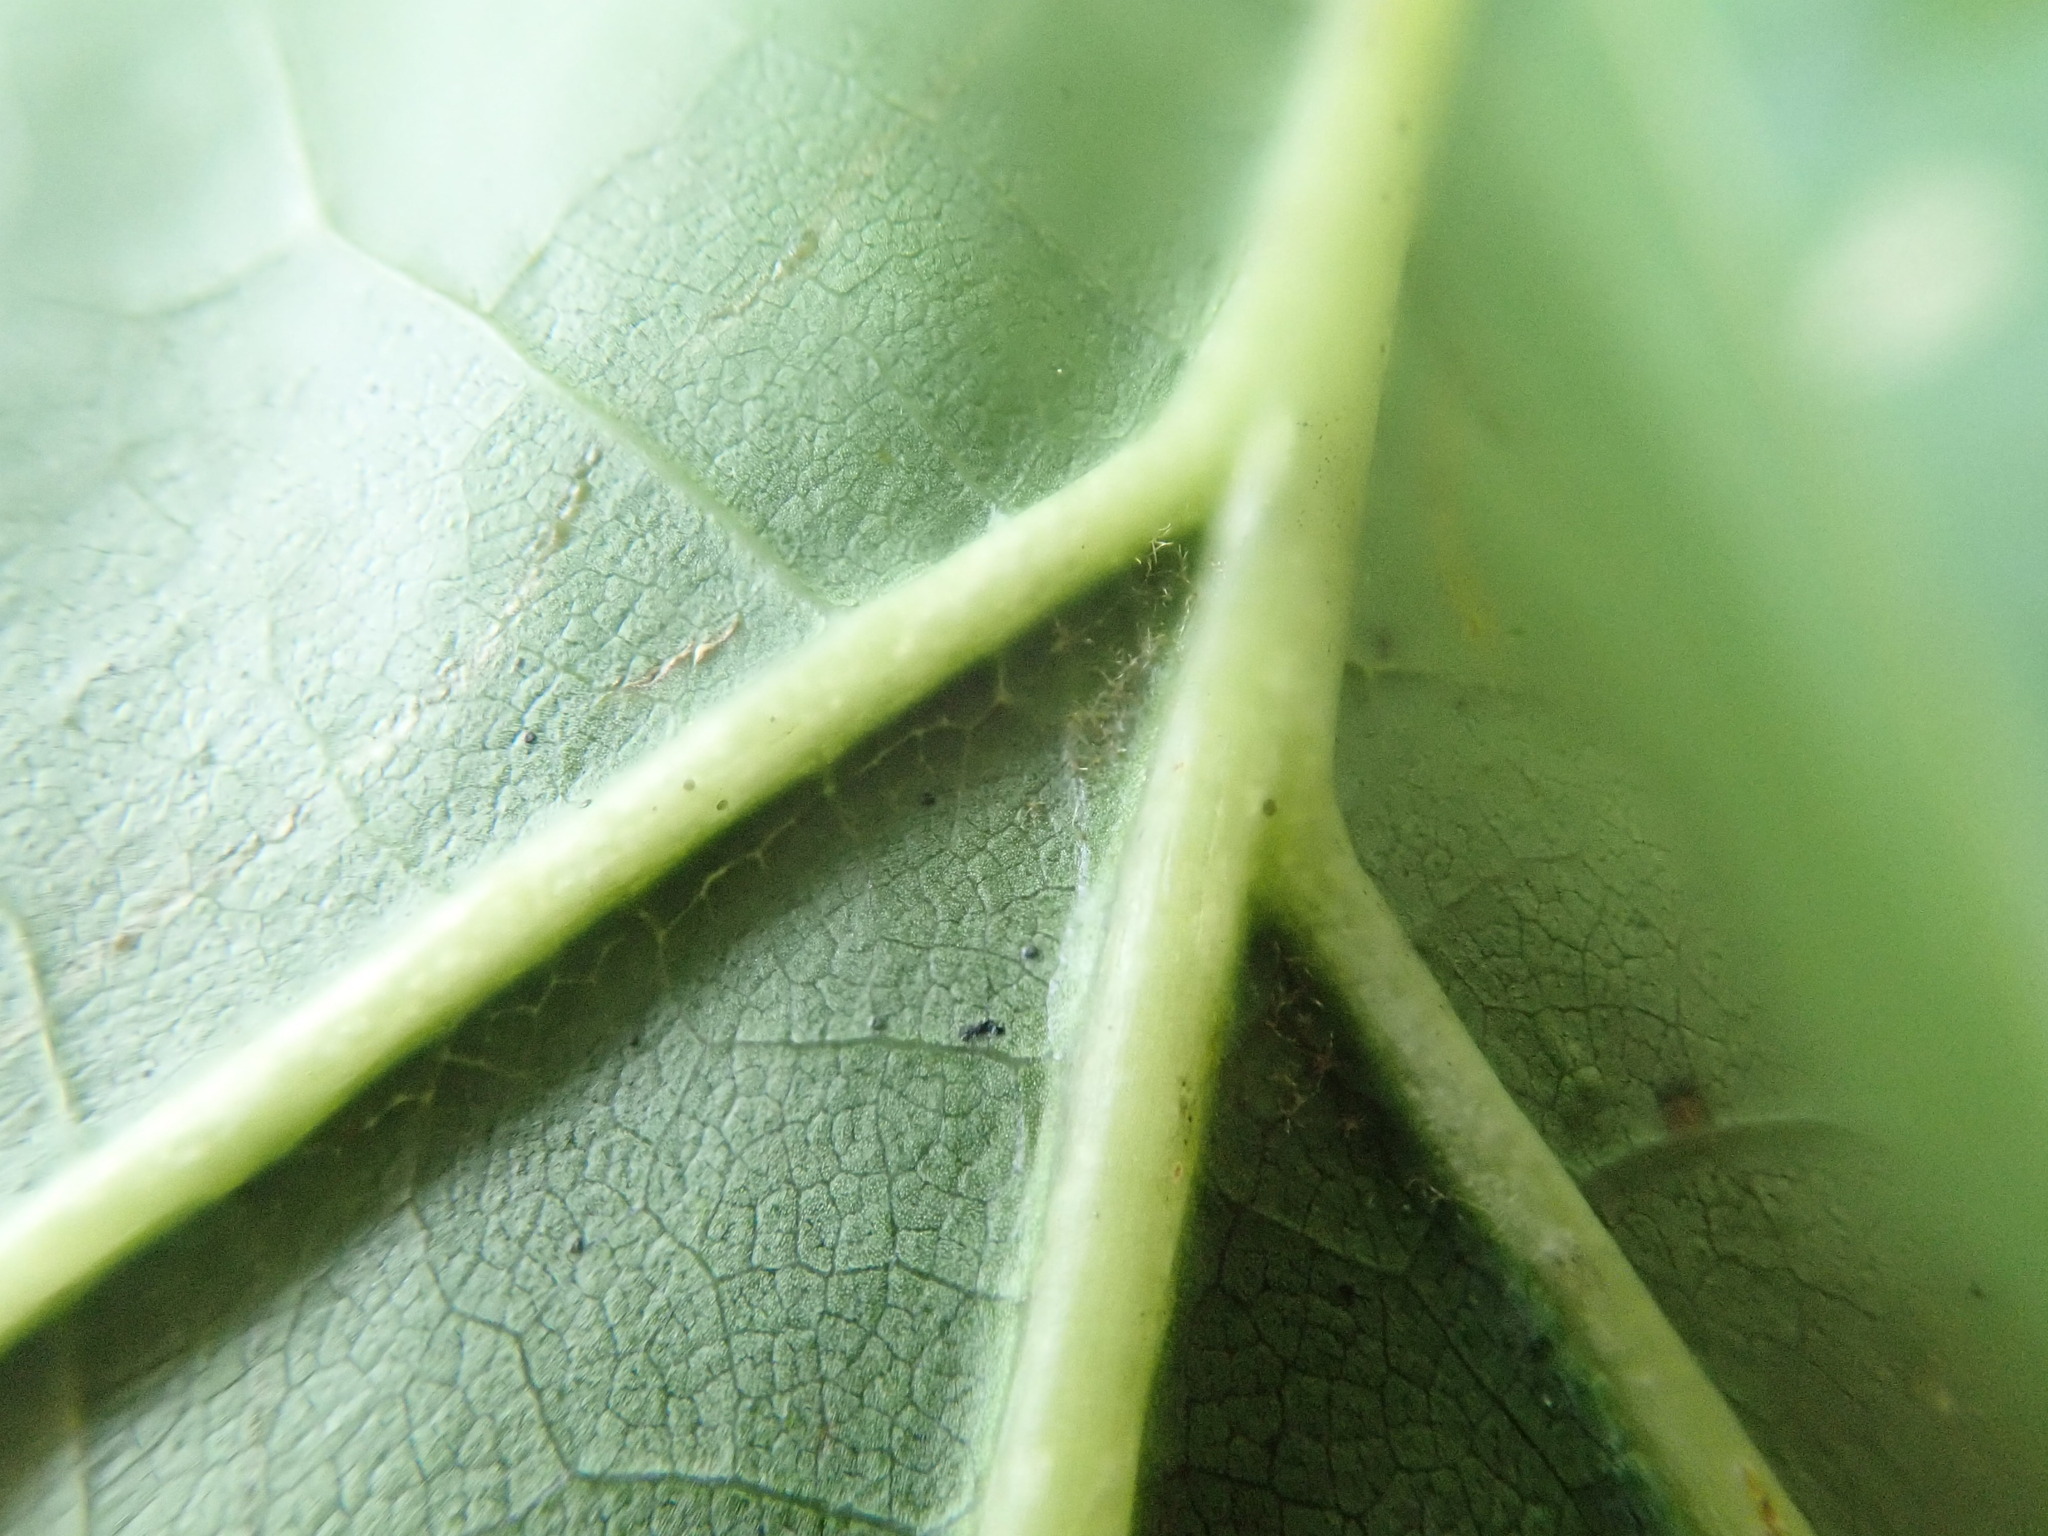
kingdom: Plantae
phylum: Tracheophyta
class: Magnoliopsida
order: Fagales
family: Fagaceae
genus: Quercus
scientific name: Quercus rubra
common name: Red oak
